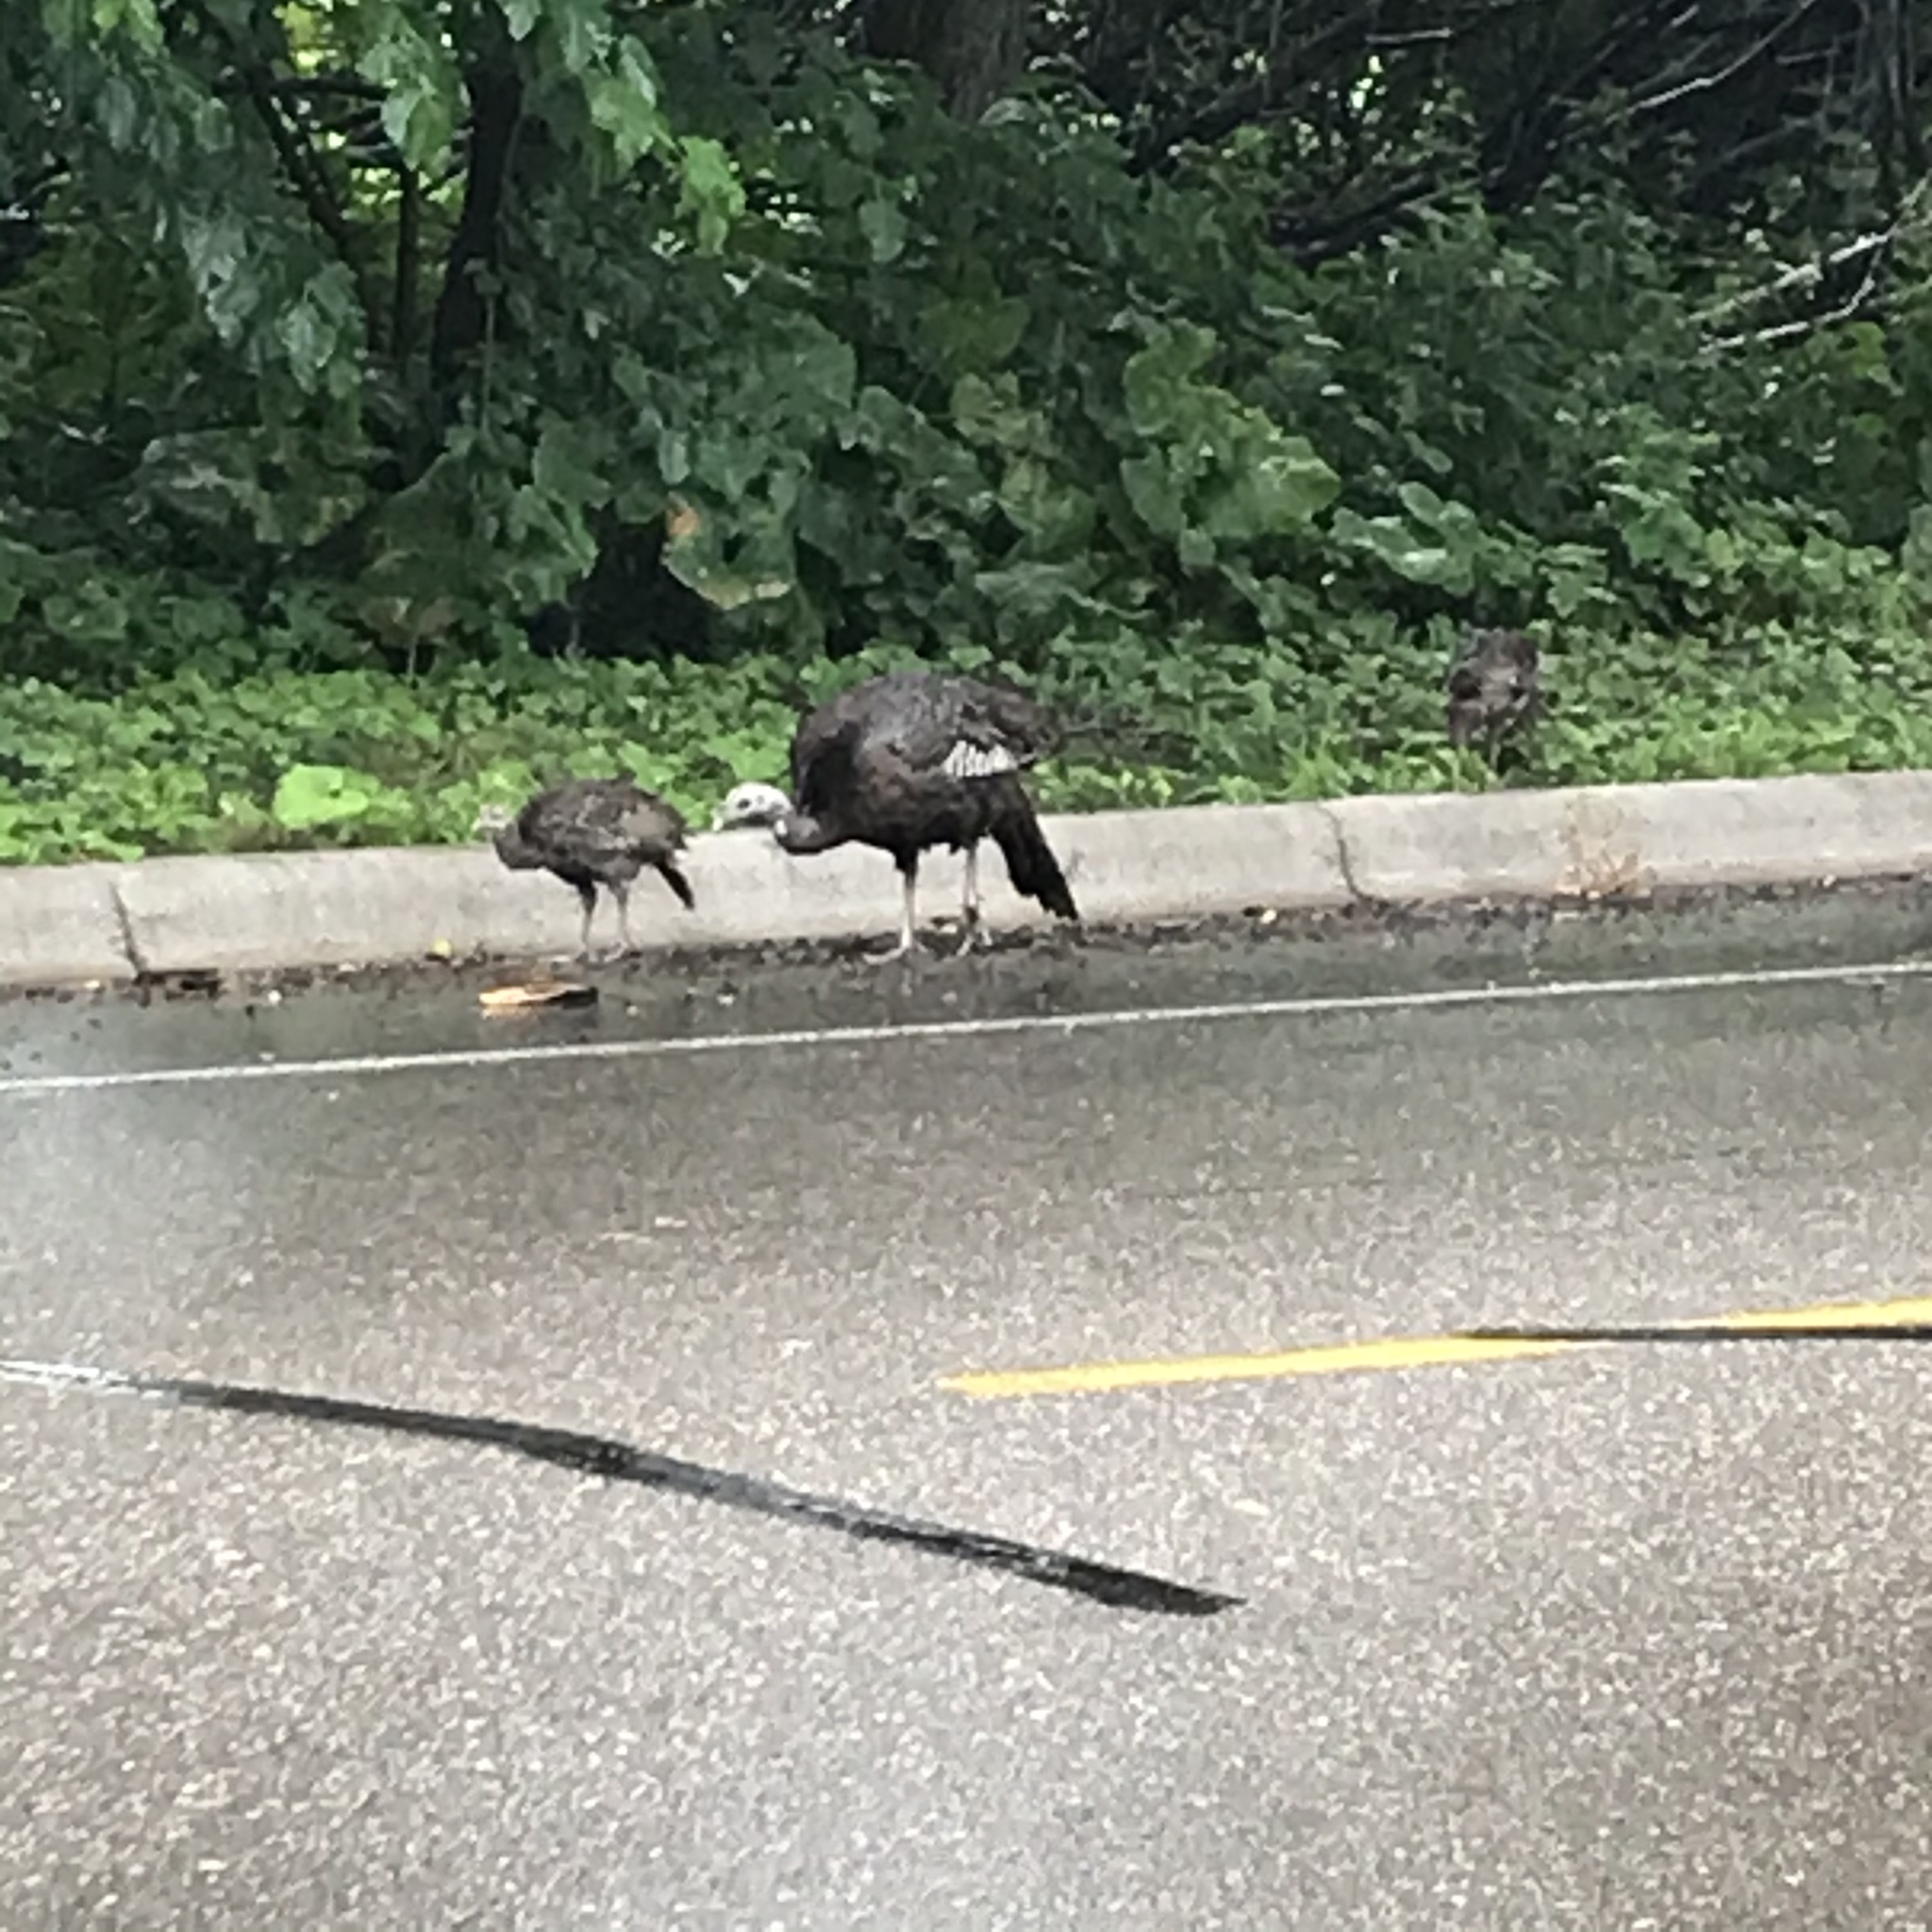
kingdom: Animalia
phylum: Chordata
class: Aves
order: Galliformes
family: Phasianidae
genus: Meleagris
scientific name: Meleagris gallopavo
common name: Wild turkey
